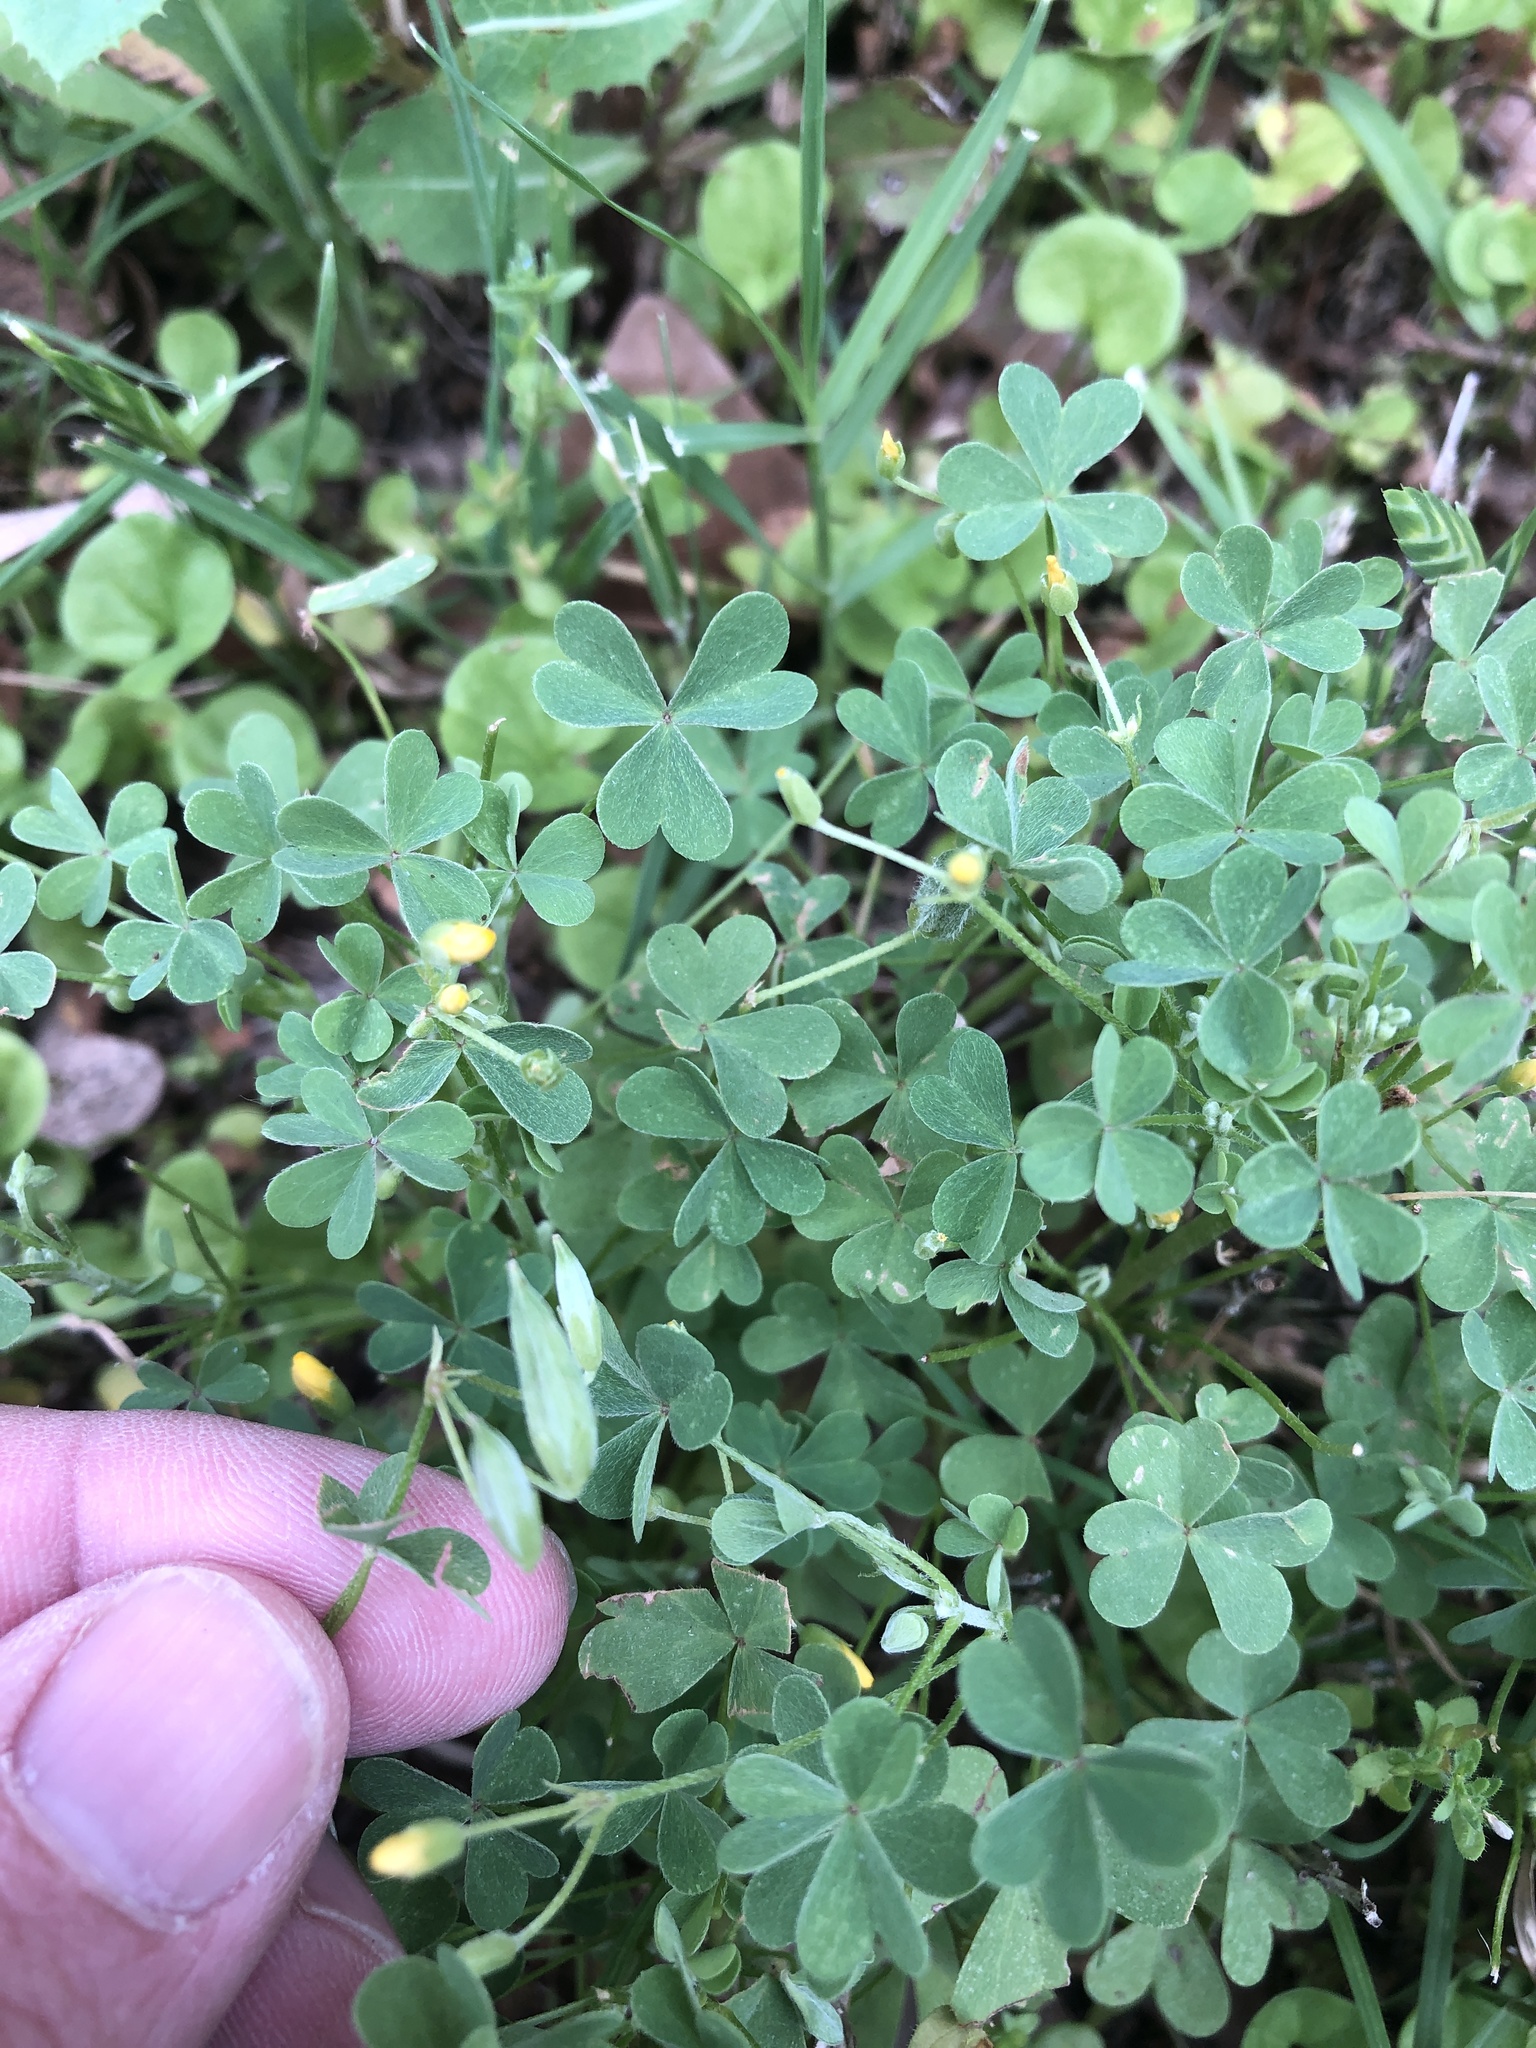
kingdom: Plantae
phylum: Tracheophyta
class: Magnoliopsida
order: Oxalidales
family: Oxalidaceae
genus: Oxalis
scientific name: Oxalis dillenii
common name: Sussex yellow-sorrel
